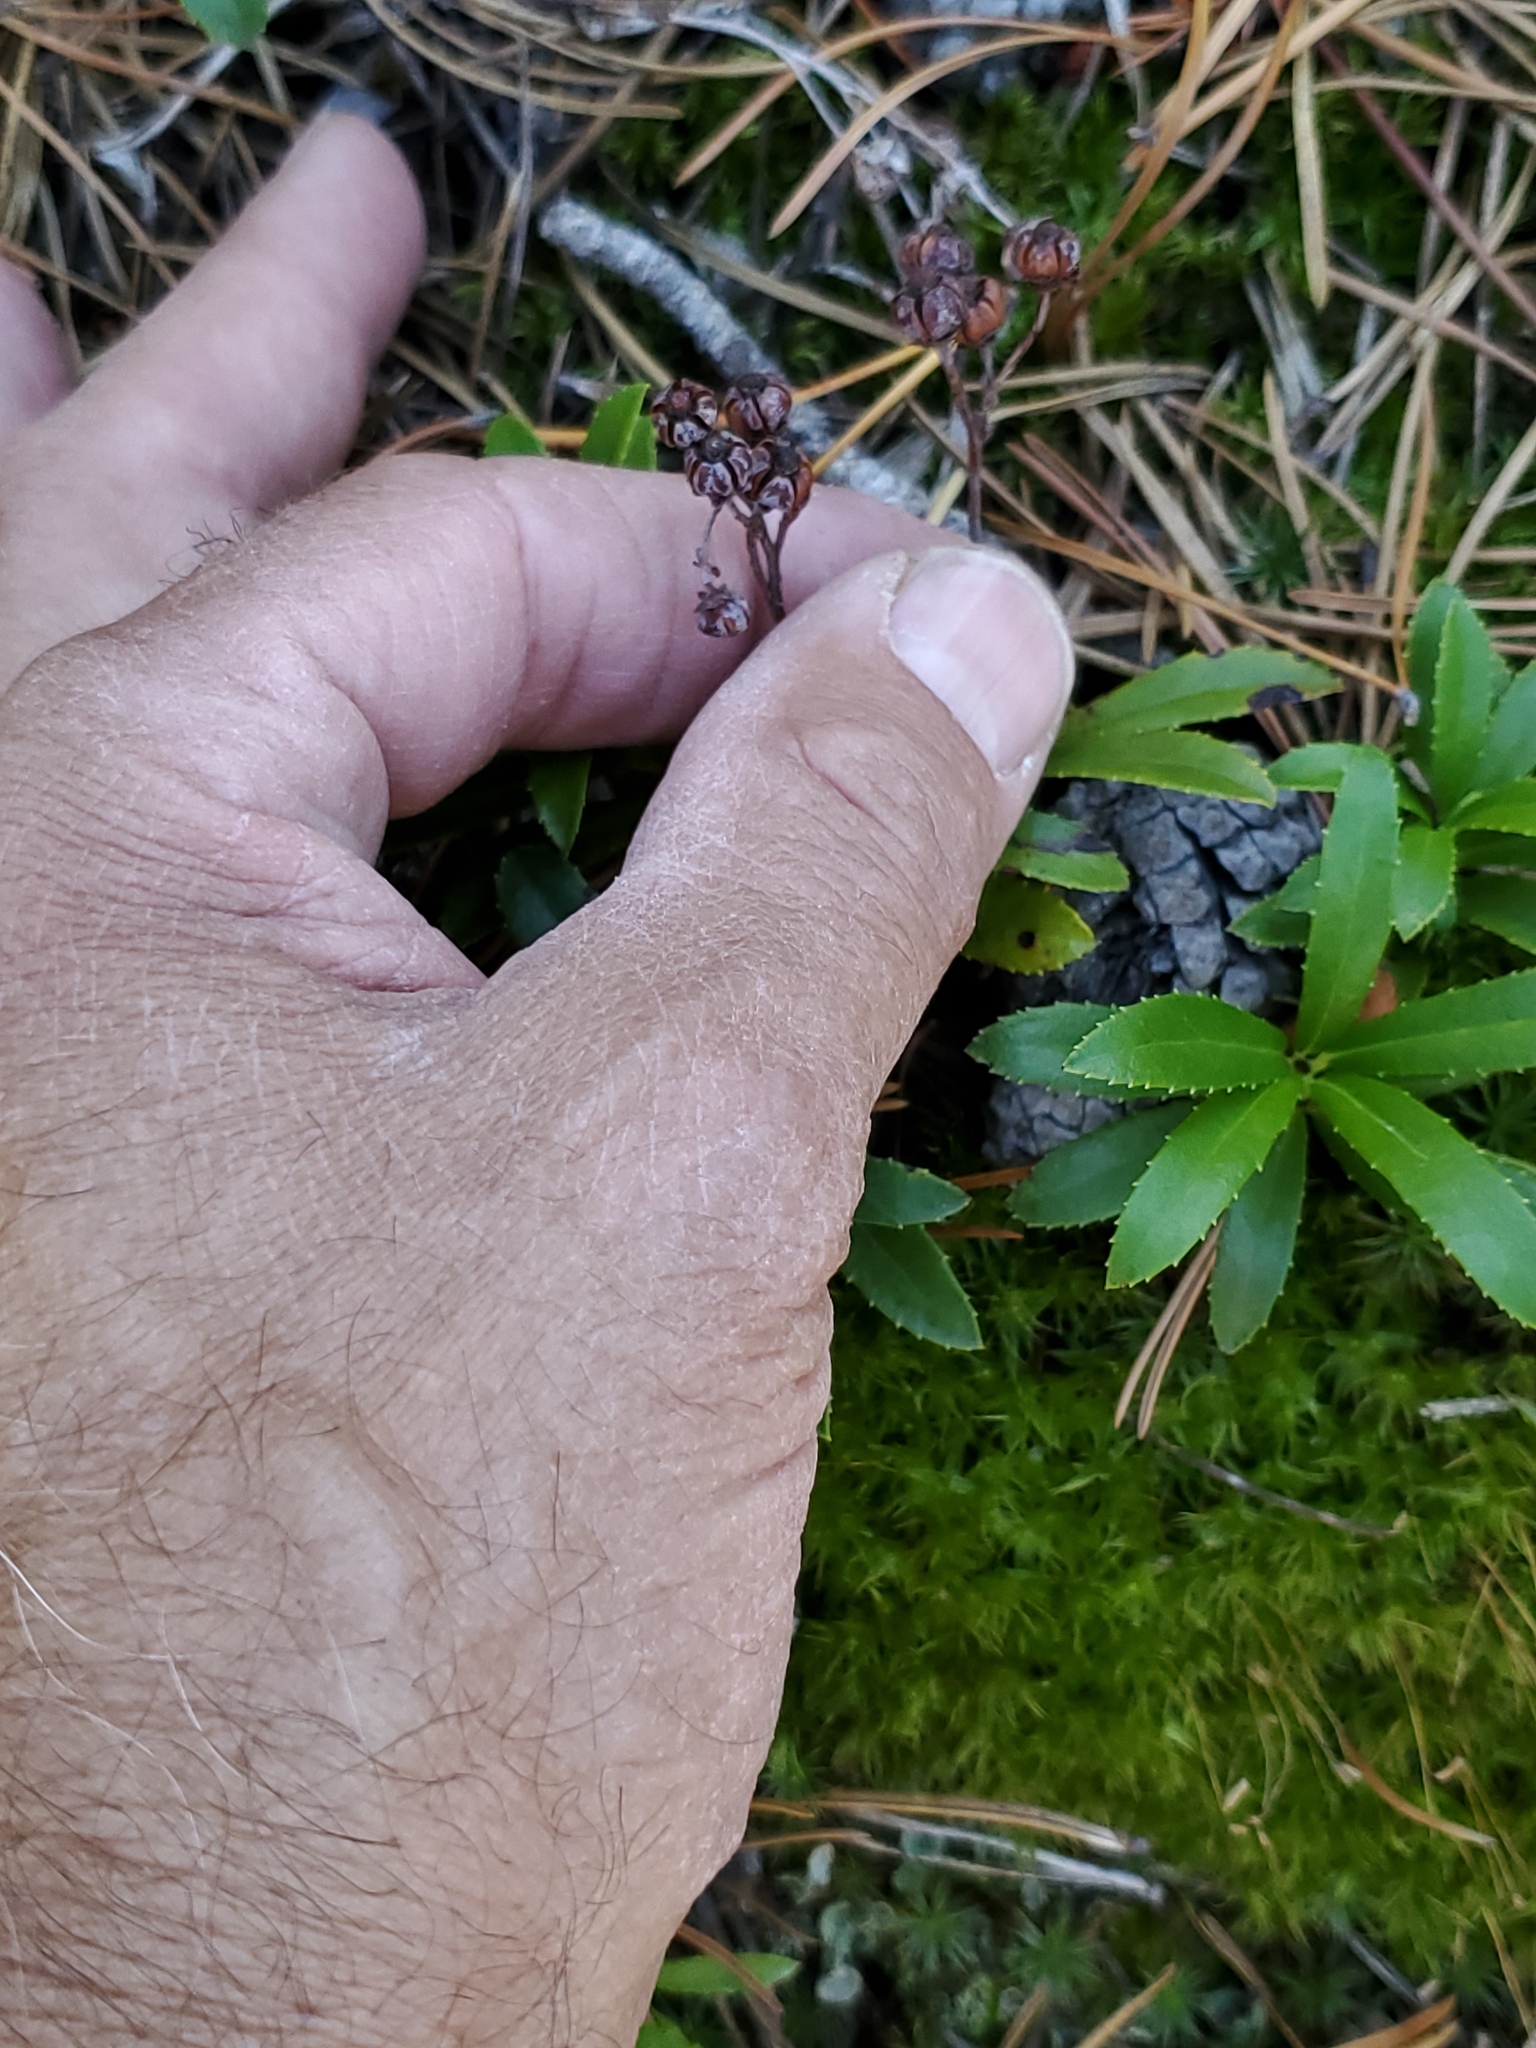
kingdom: Plantae
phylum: Tracheophyta
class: Magnoliopsida
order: Ericales
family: Ericaceae
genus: Chimaphila
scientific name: Chimaphila umbellata
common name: Pipsissewa
